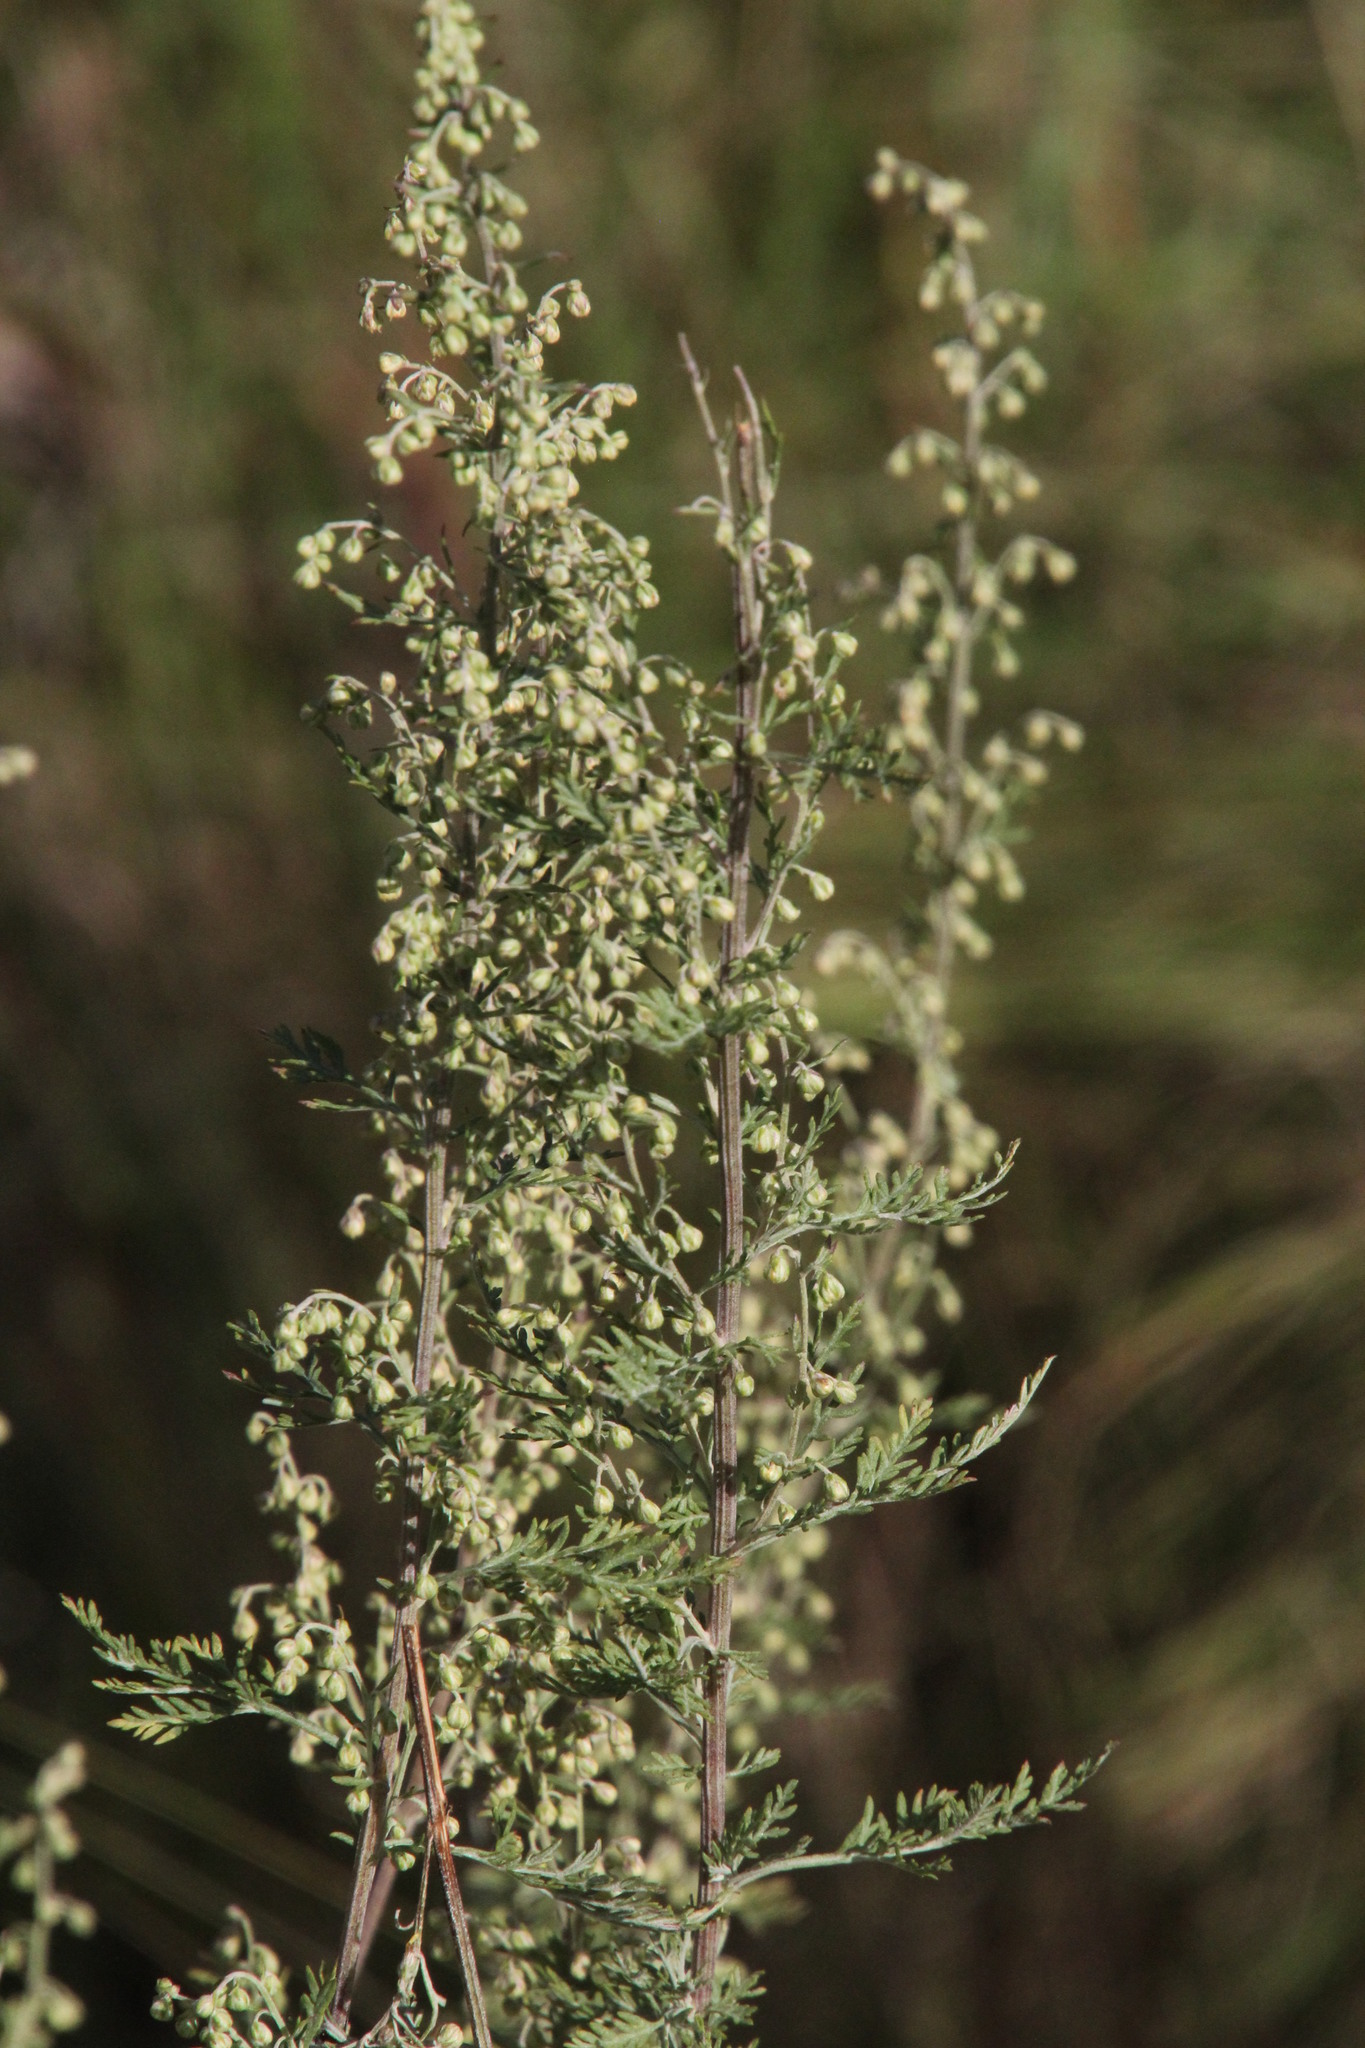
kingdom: Plantae
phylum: Tracheophyta
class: Magnoliopsida
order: Asterales
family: Asteraceae
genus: Artemisia
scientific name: Artemisia afra
